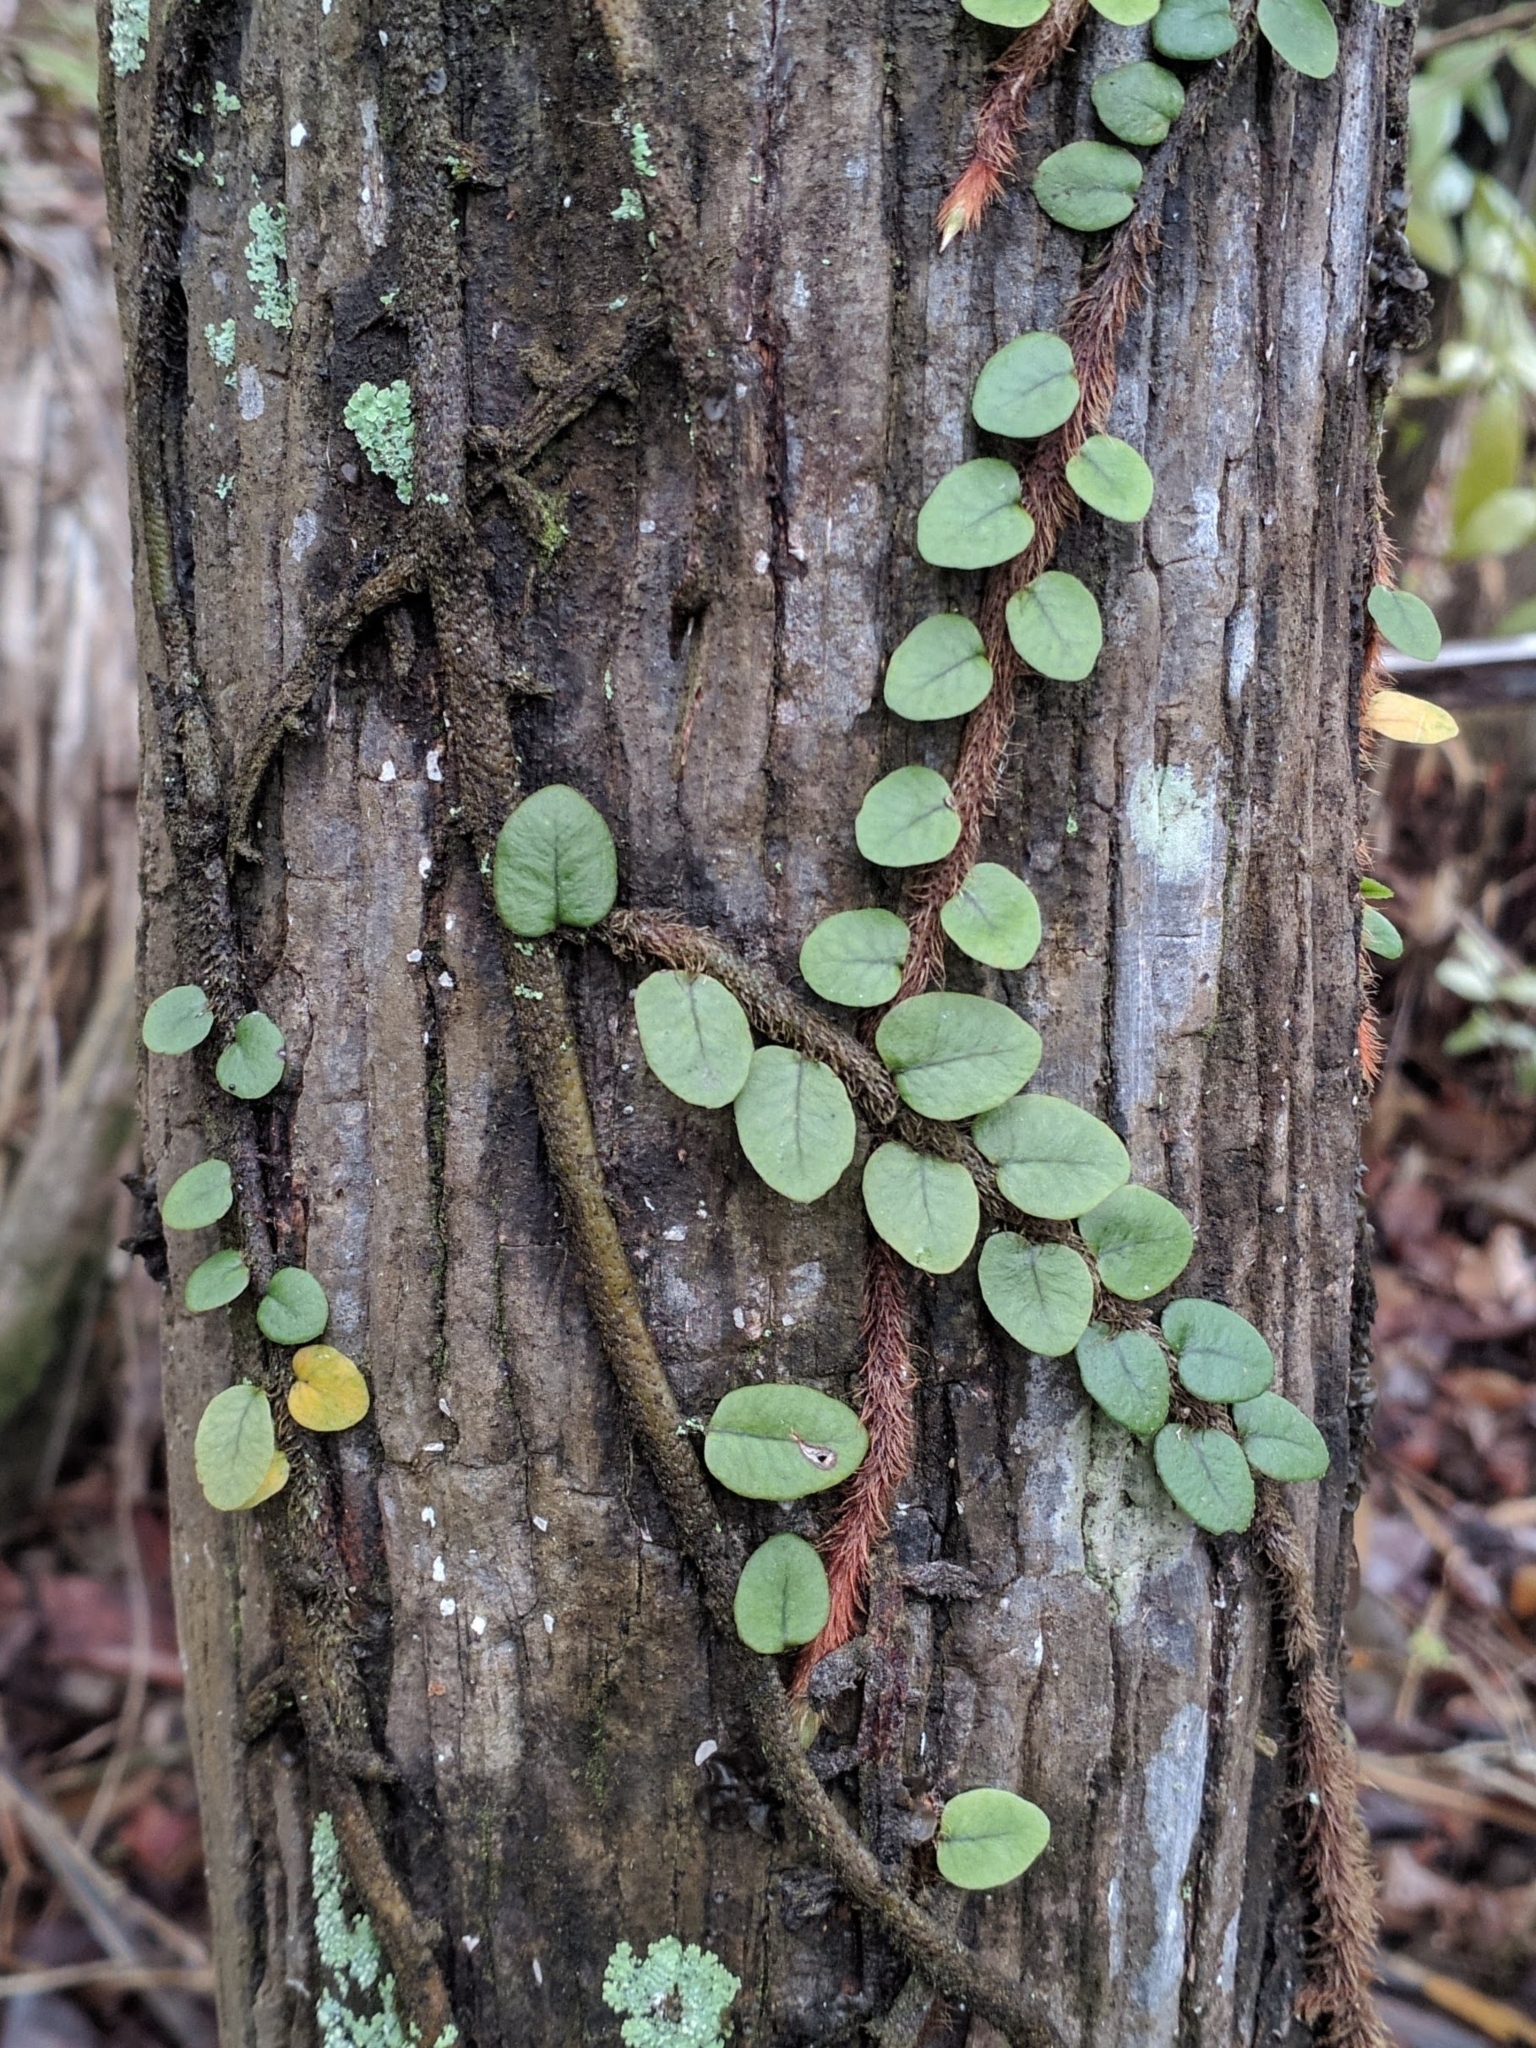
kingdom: Plantae
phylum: Tracheophyta
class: Polypodiopsida
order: Polypodiales
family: Polypodiaceae
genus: Microgramma
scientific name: Microgramma vaccinifolia
